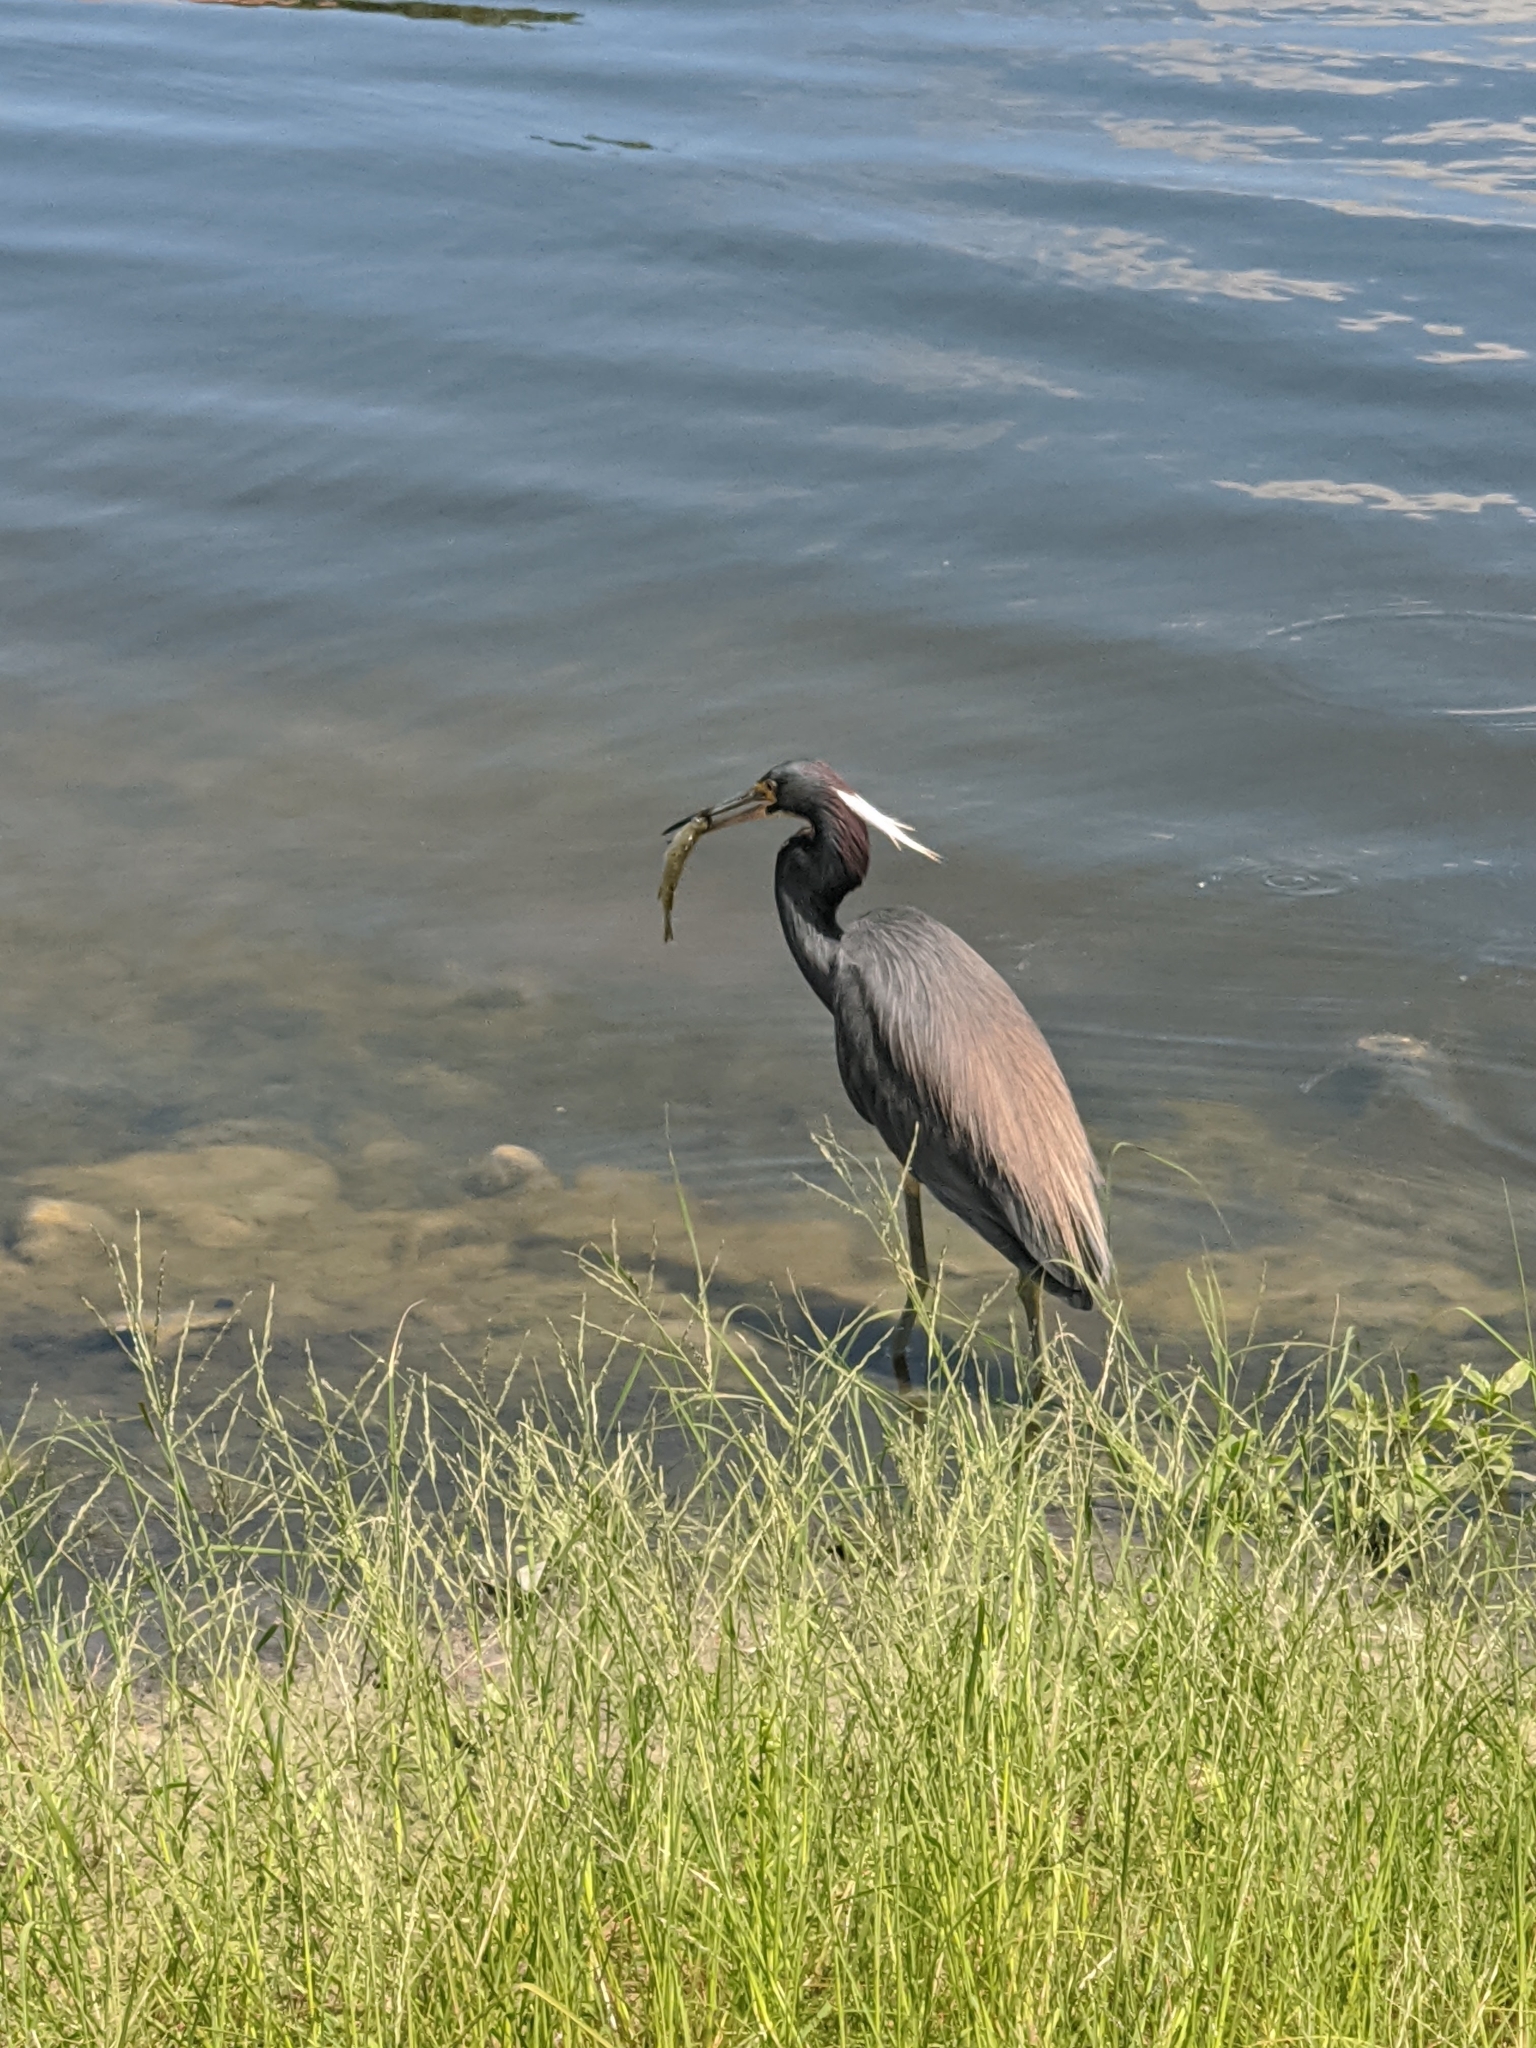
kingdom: Animalia
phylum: Chordata
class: Aves
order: Pelecaniformes
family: Ardeidae
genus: Egretta
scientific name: Egretta tricolor
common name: Tricolored heron
